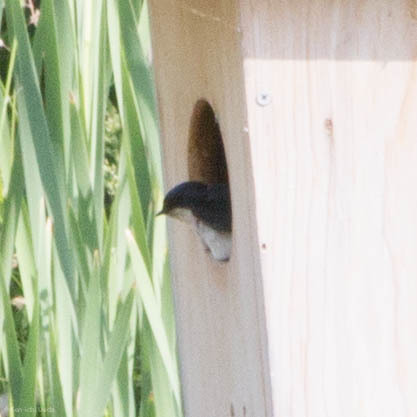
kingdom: Animalia
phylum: Chordata
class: Aves
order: Passeriformes
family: Hirundinidae
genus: Tachycineta
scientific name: Tachycineta bicolor
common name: Tree swallow
